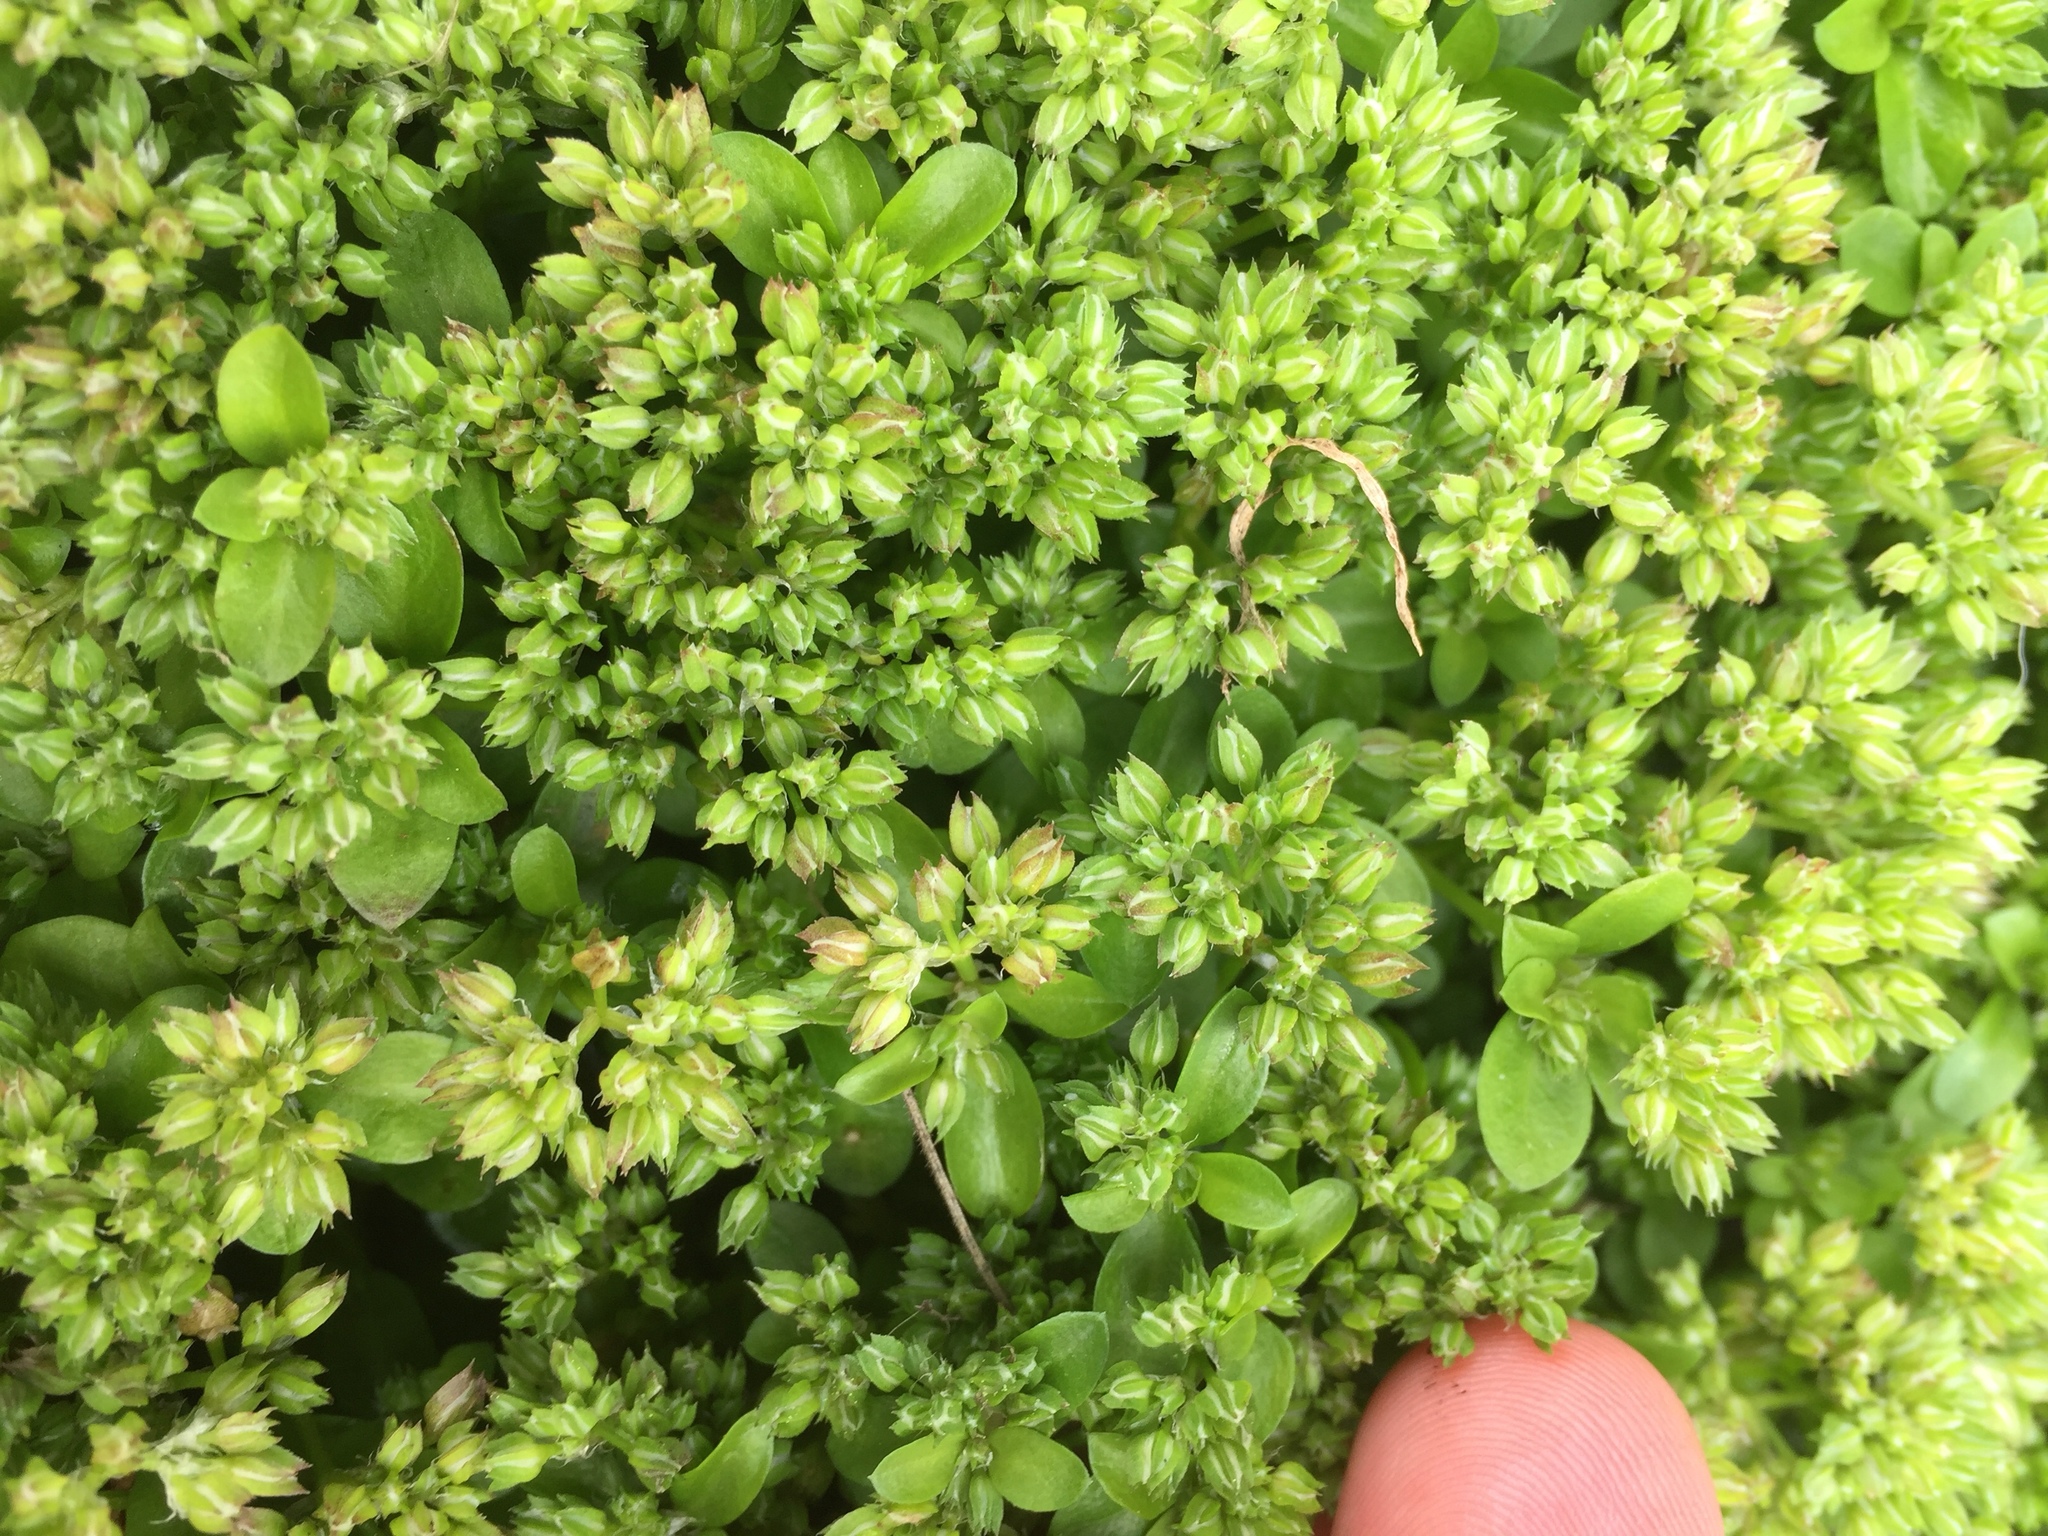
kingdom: Plantae
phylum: Tracheophyta
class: Magnoliopsida
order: Caryophyllales
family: Caryophyllaceae
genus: Polycarpon
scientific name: Polycarpon tetraphyllum
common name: Four-leaved all-seed
